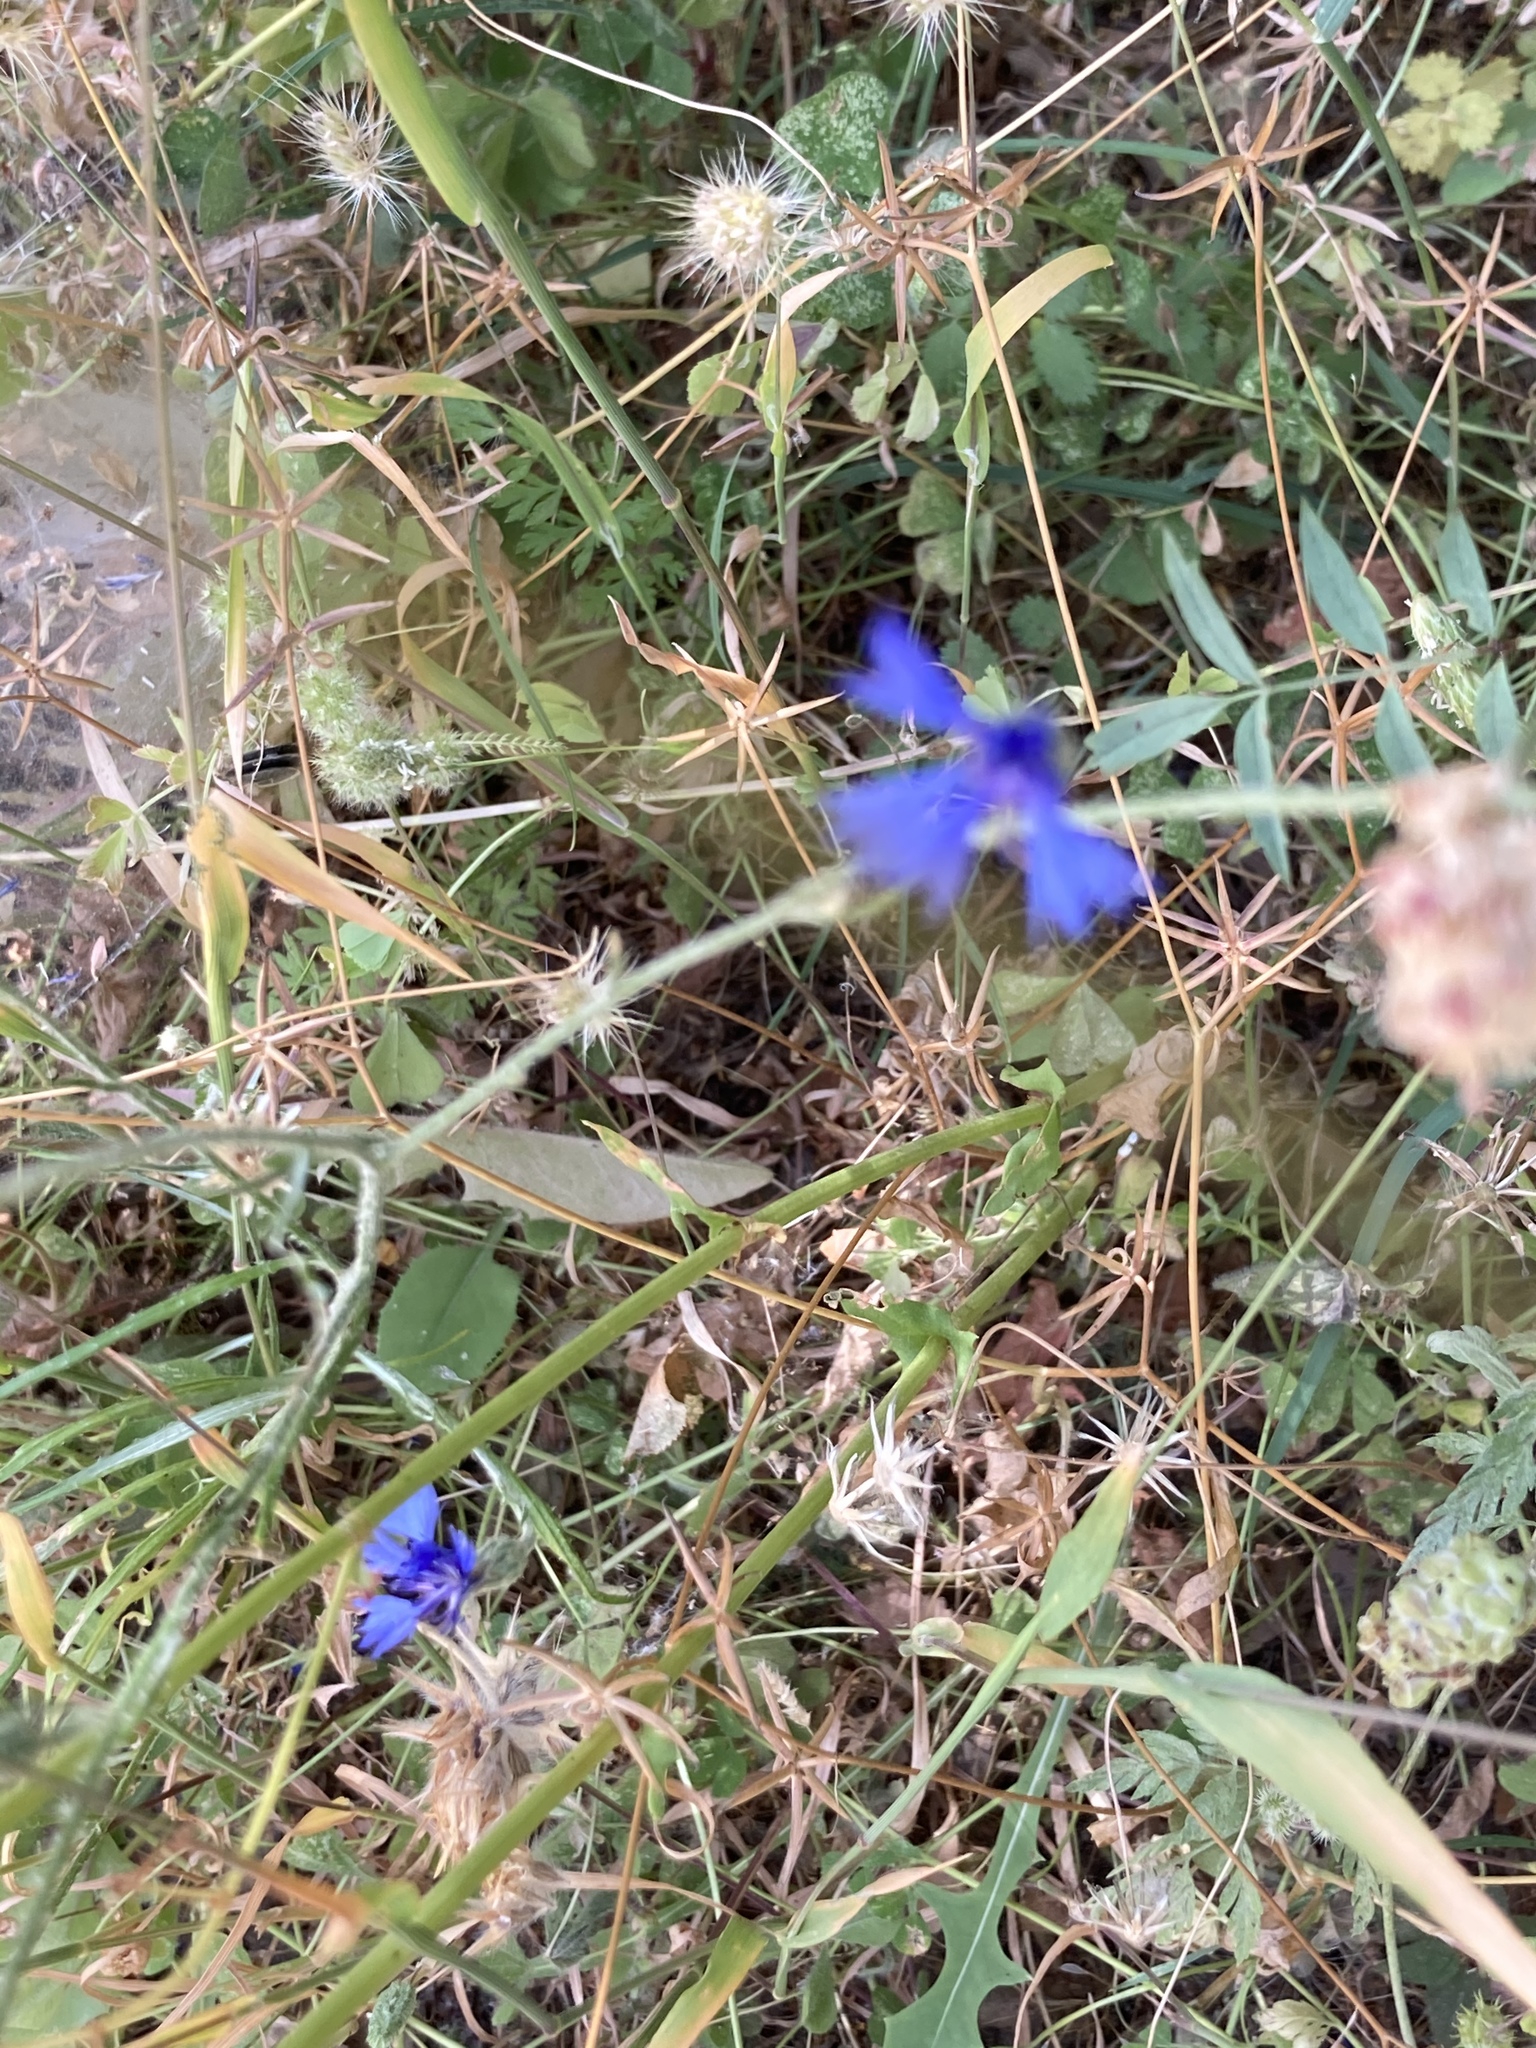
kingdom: Plantae
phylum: Tracheophyta
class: Magnoliopsida
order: Asterales
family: Asteraceae
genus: Centaurea
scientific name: Centaurea cyanus
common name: Cornflower
